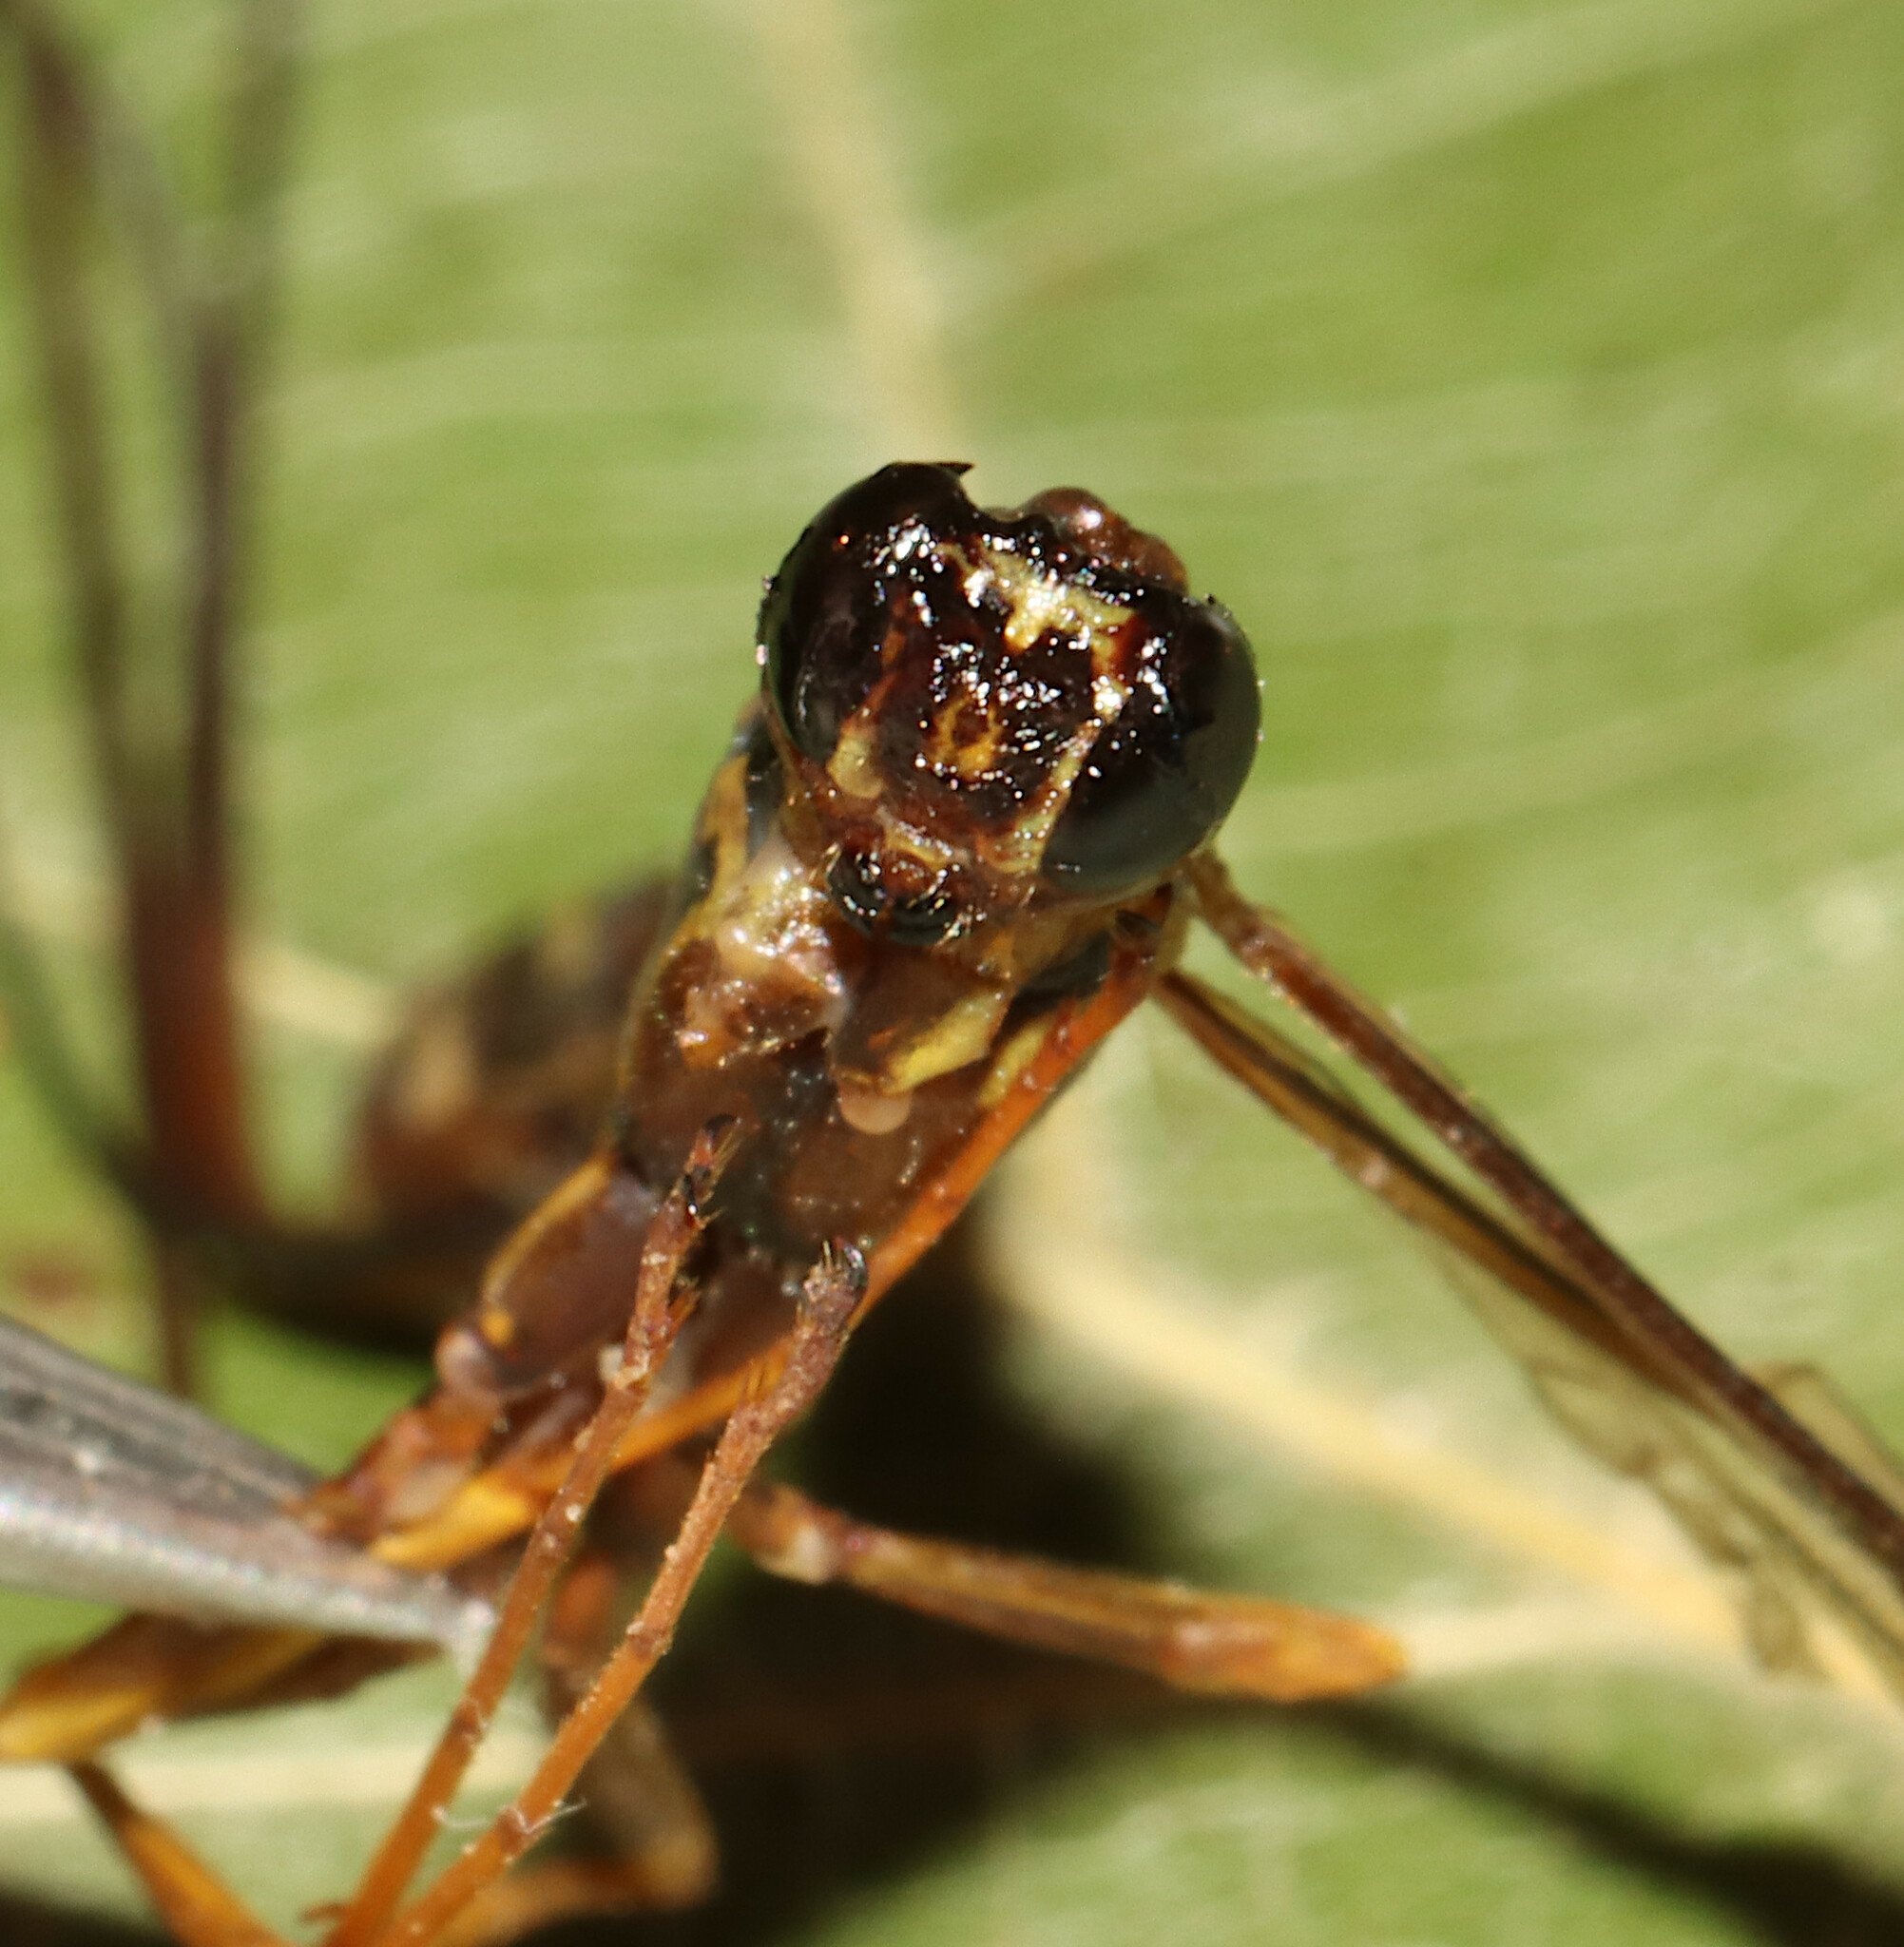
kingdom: Animalia
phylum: Arthropoda
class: Insecta
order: Hymenoptera
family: Ichneumonidae
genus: Megarhyssa
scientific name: Megarhyssa macrura
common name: Long-tailed giant ichneumonid wasp
